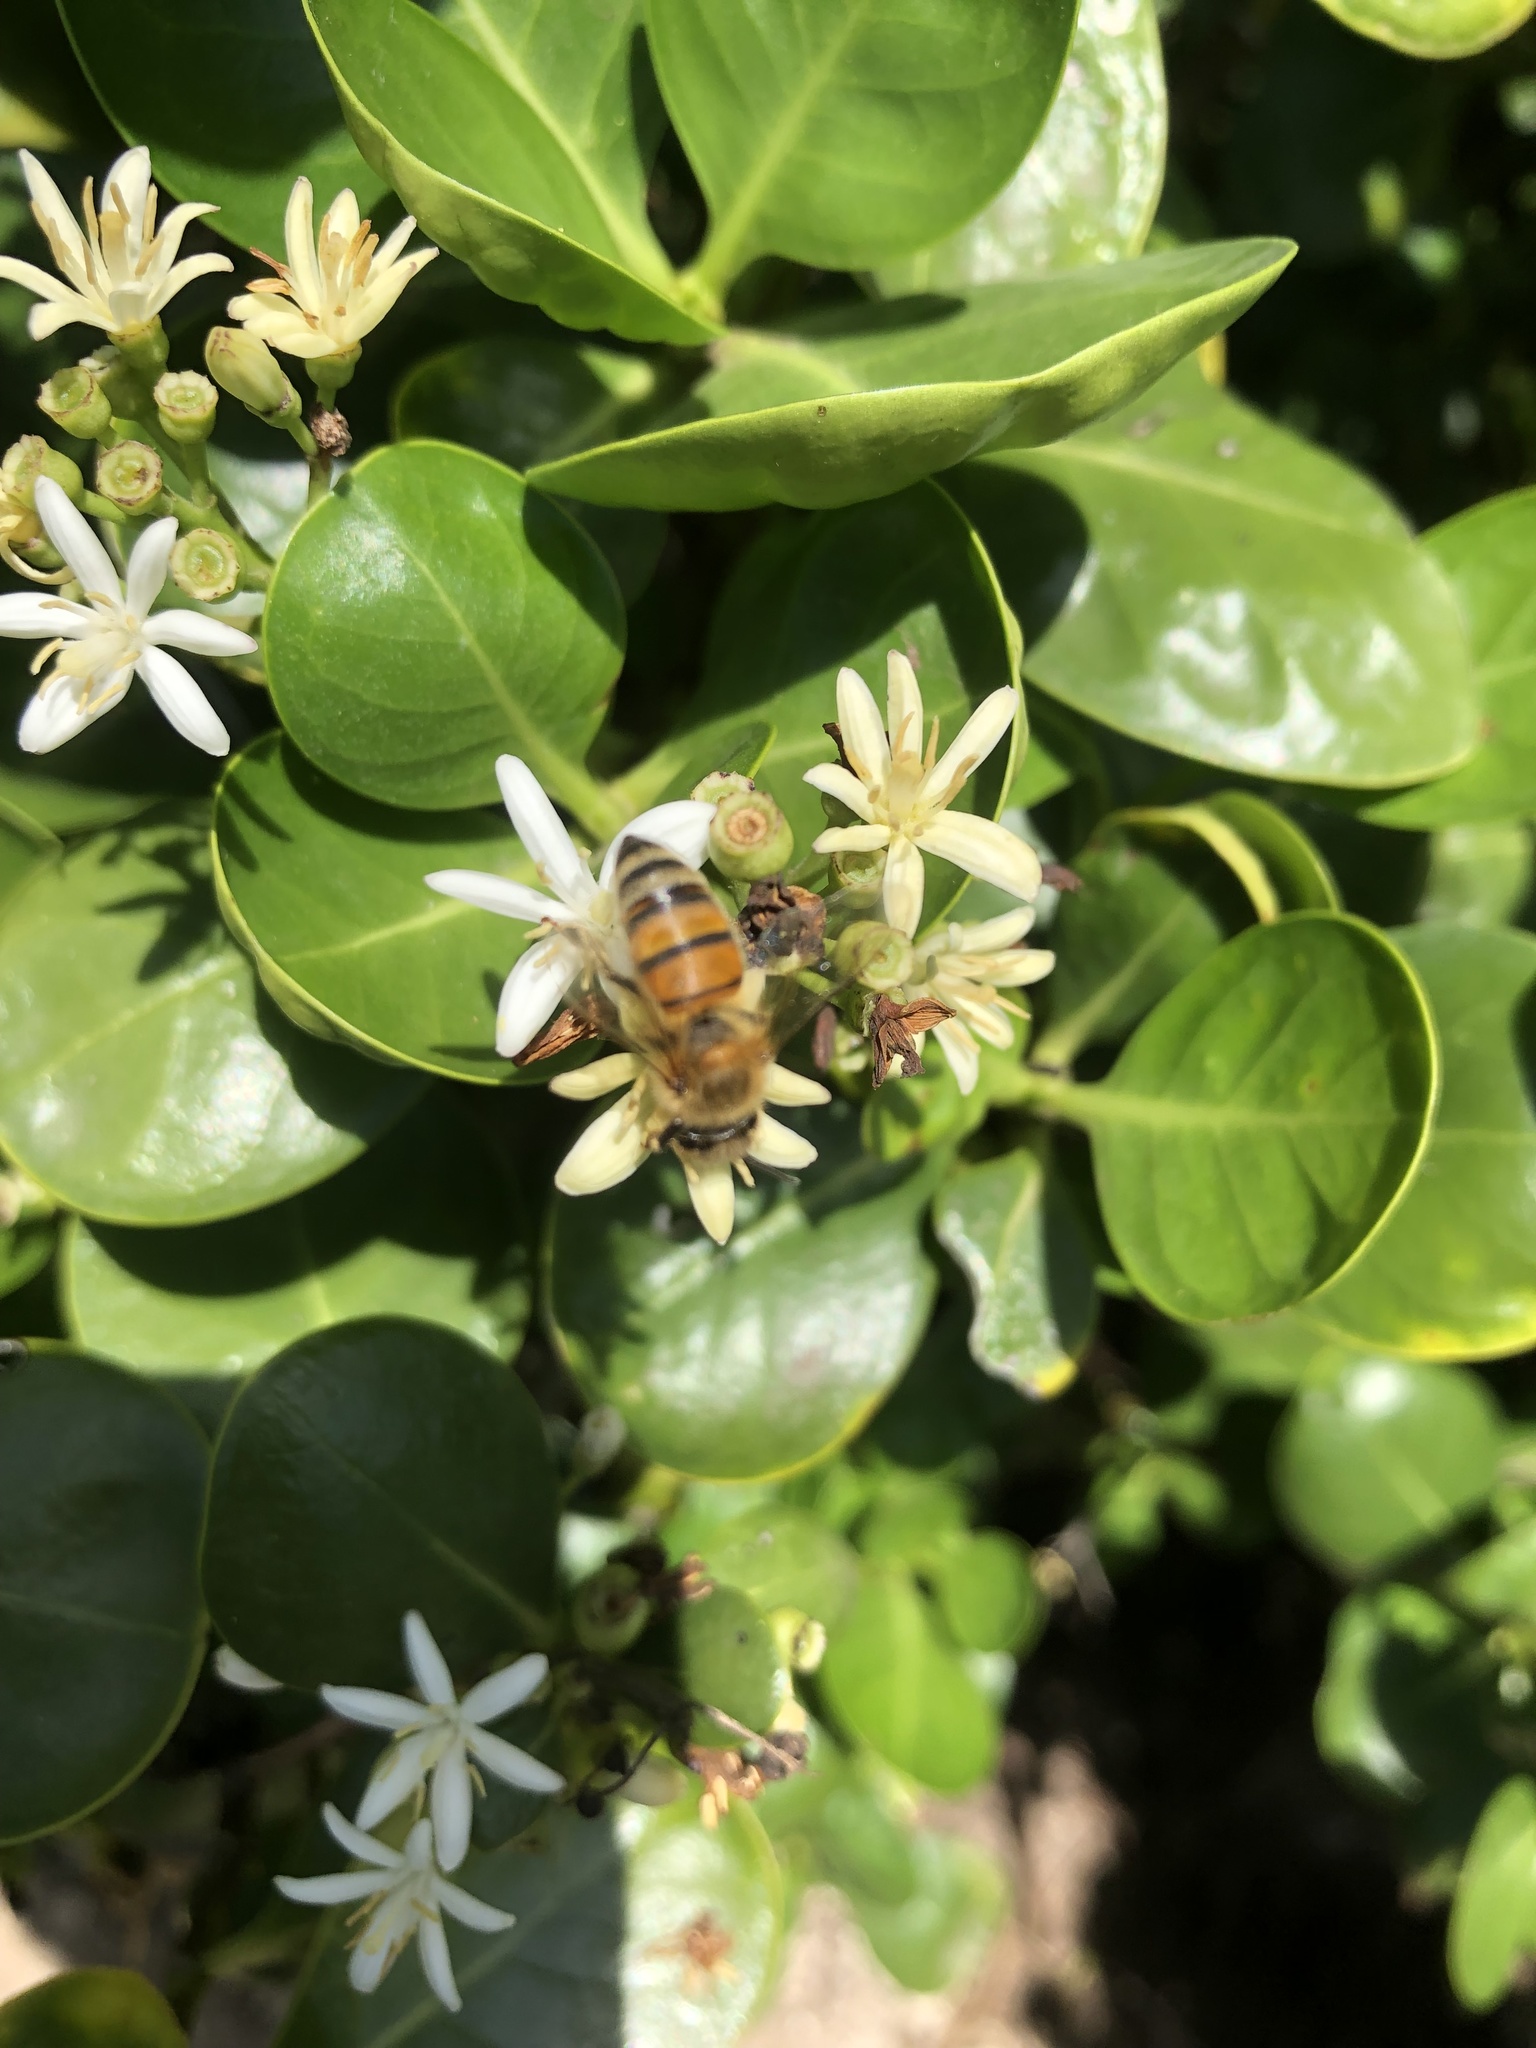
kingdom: Animalia
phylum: Arthropoda
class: Insecta
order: Hymenoptera
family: Apidae
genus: Apis
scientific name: Apis mellifera
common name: Honey bee
